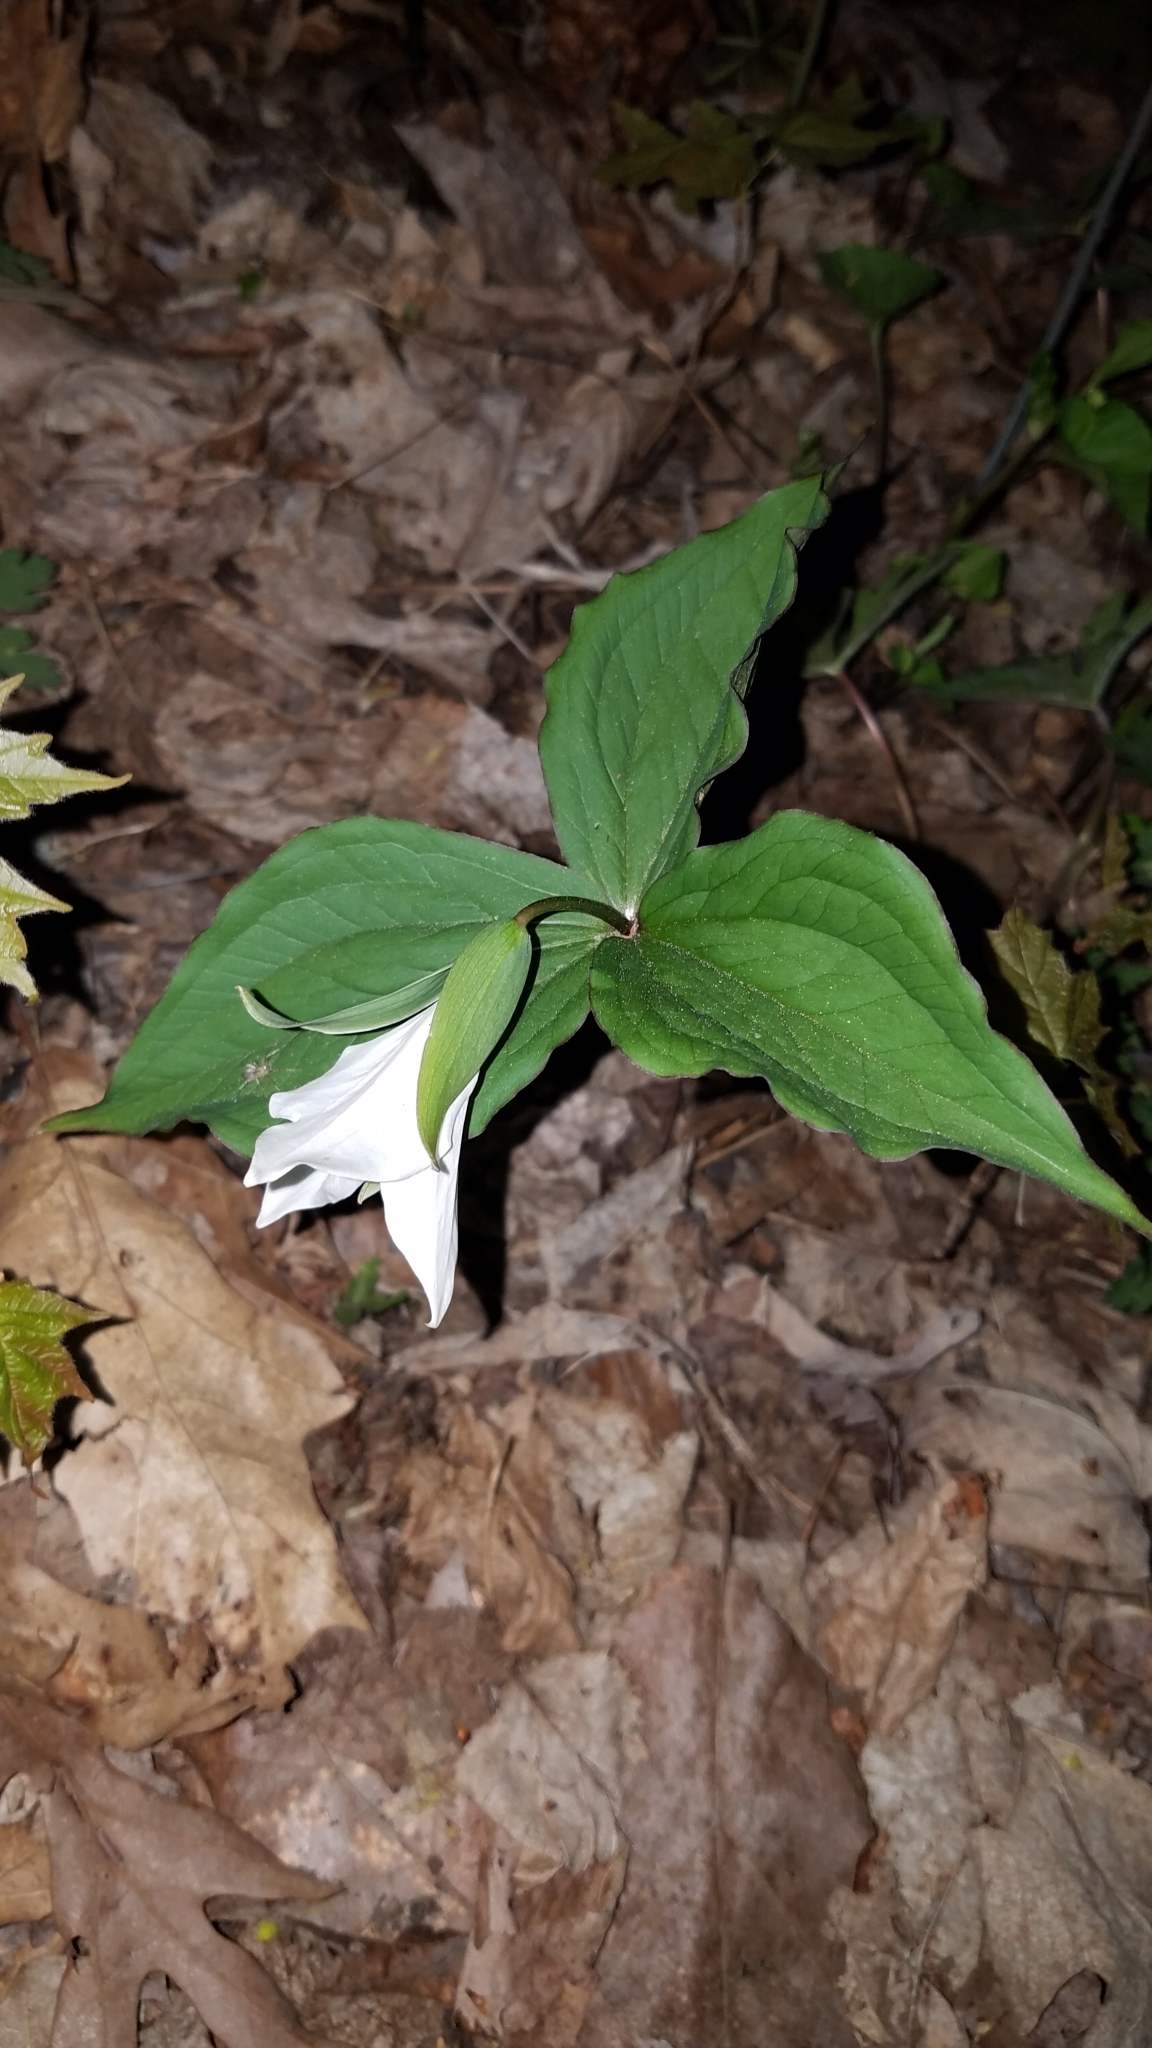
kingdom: Plantae
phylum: Tracheophyta
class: Liliopsida
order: Liliales
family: Melanthiaceae
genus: Trillium
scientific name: Trillium grandiflorum
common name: Great white trillium
